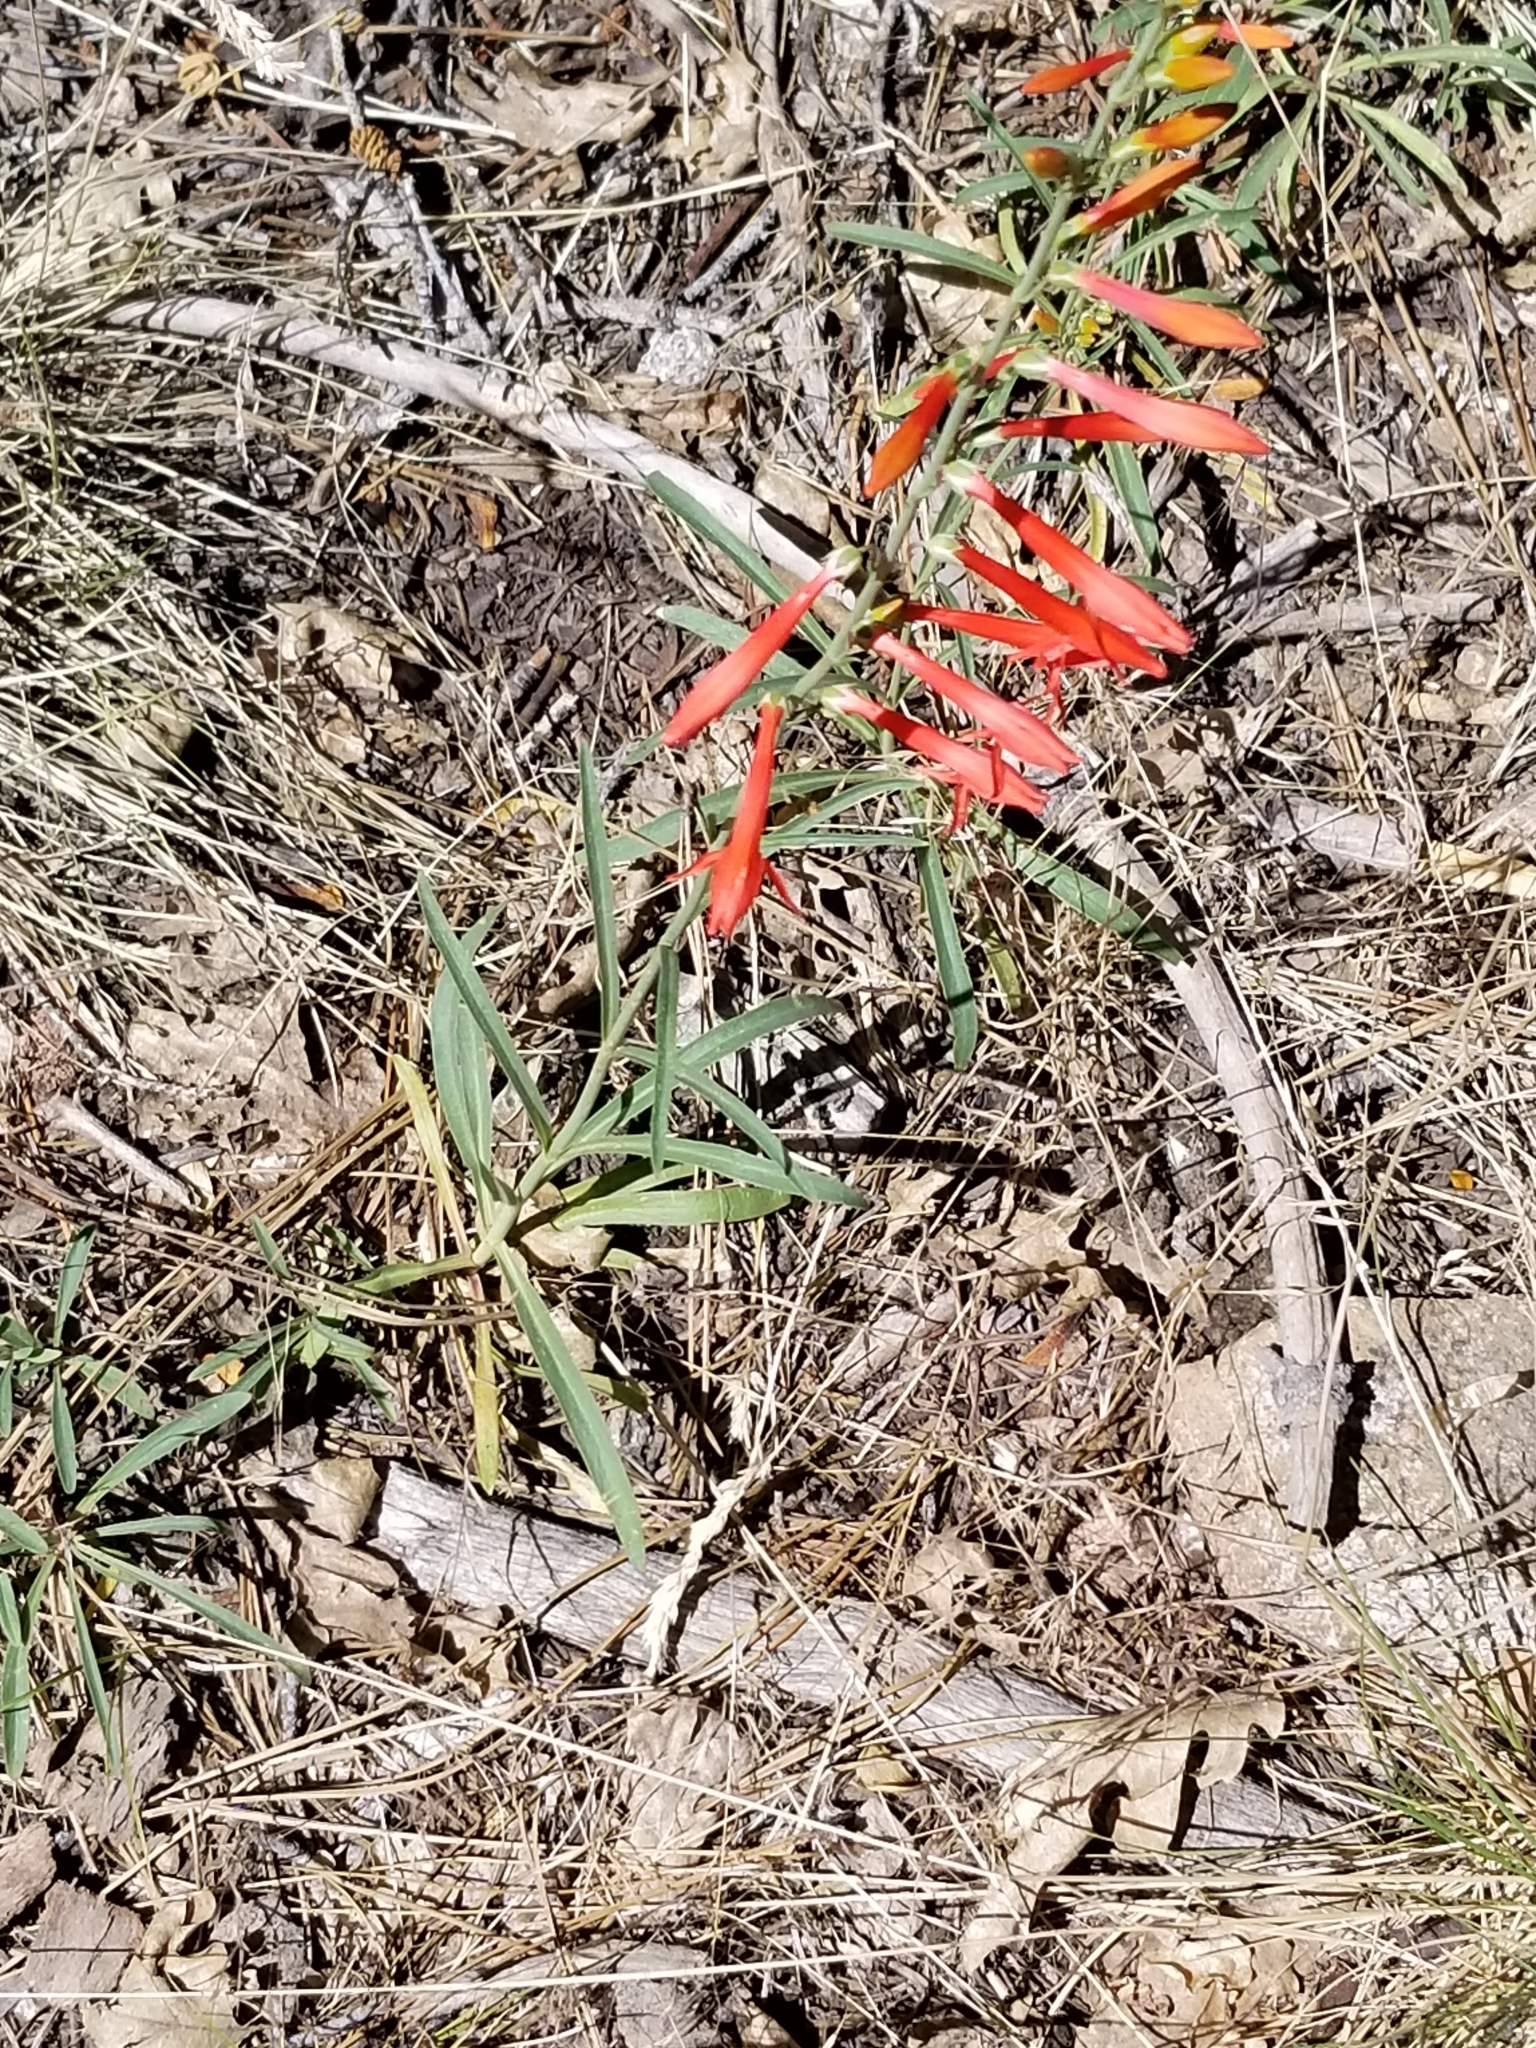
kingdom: Plantae
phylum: Tracheophyta
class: Magnoliopsida
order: Lamiales
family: Plantaginaceae
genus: Penstemon
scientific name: Penstemon rostriflorus
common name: Bridges's penstemon
